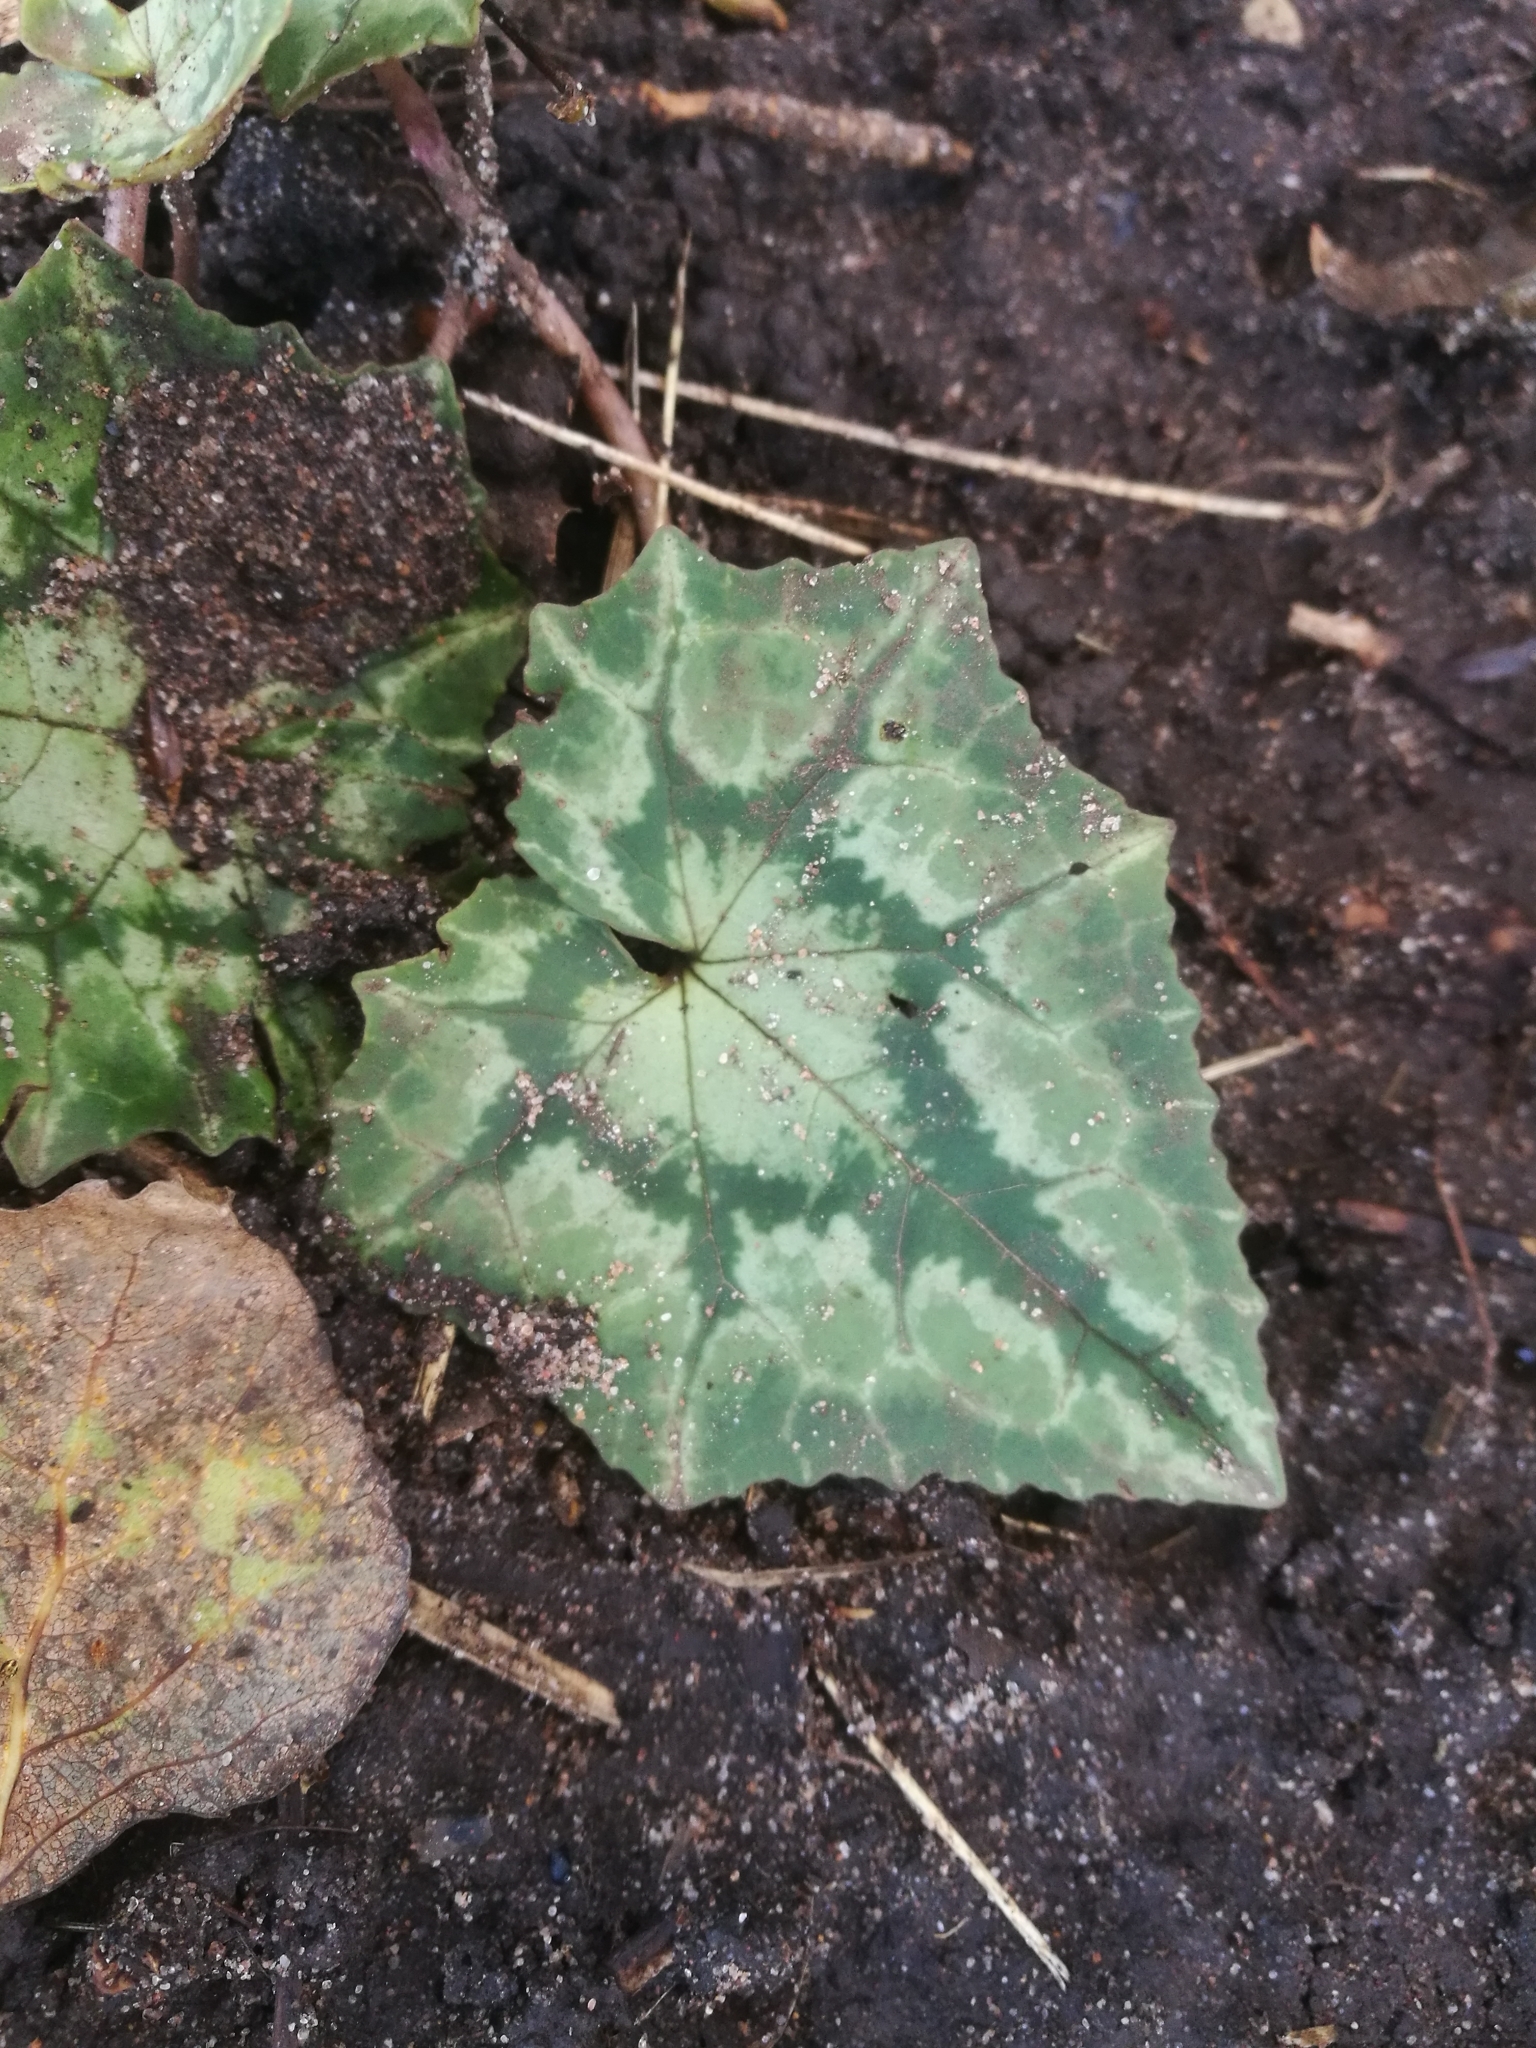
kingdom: Plantae
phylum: Tracheophyta
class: Magnoliopsida
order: Ericales
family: Primulaceae
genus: Cyclamen
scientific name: Cyclamen hederifolium
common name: Sowbread
